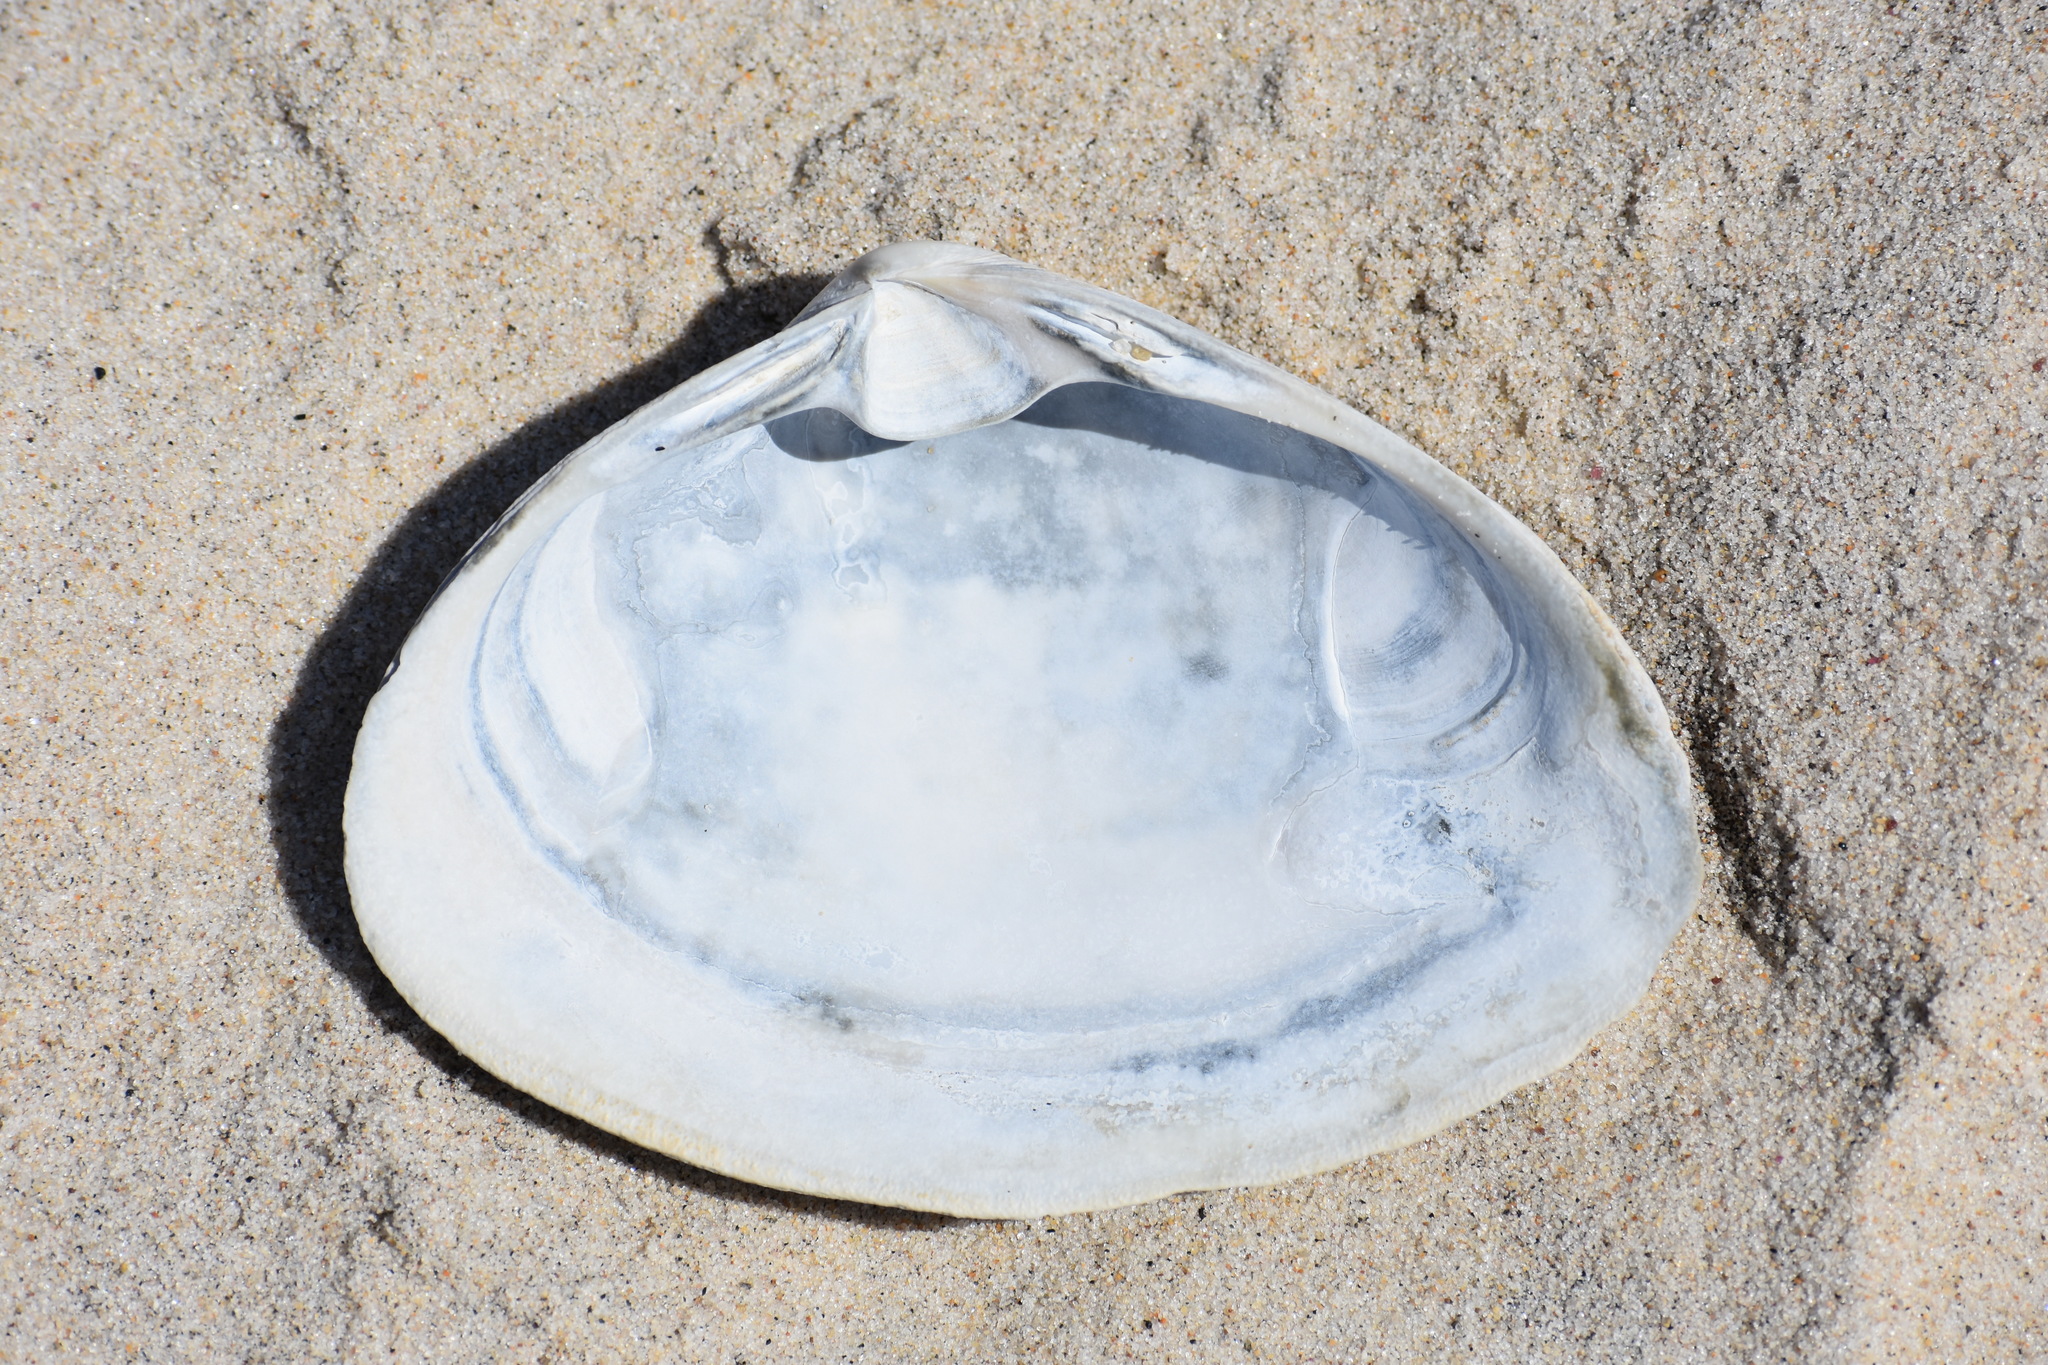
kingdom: Animalia
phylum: Mollusca
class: Bivalvia
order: Venerida
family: Mactridae
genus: Spisula
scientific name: Spisula solidissima
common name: Atlantic surf clam
